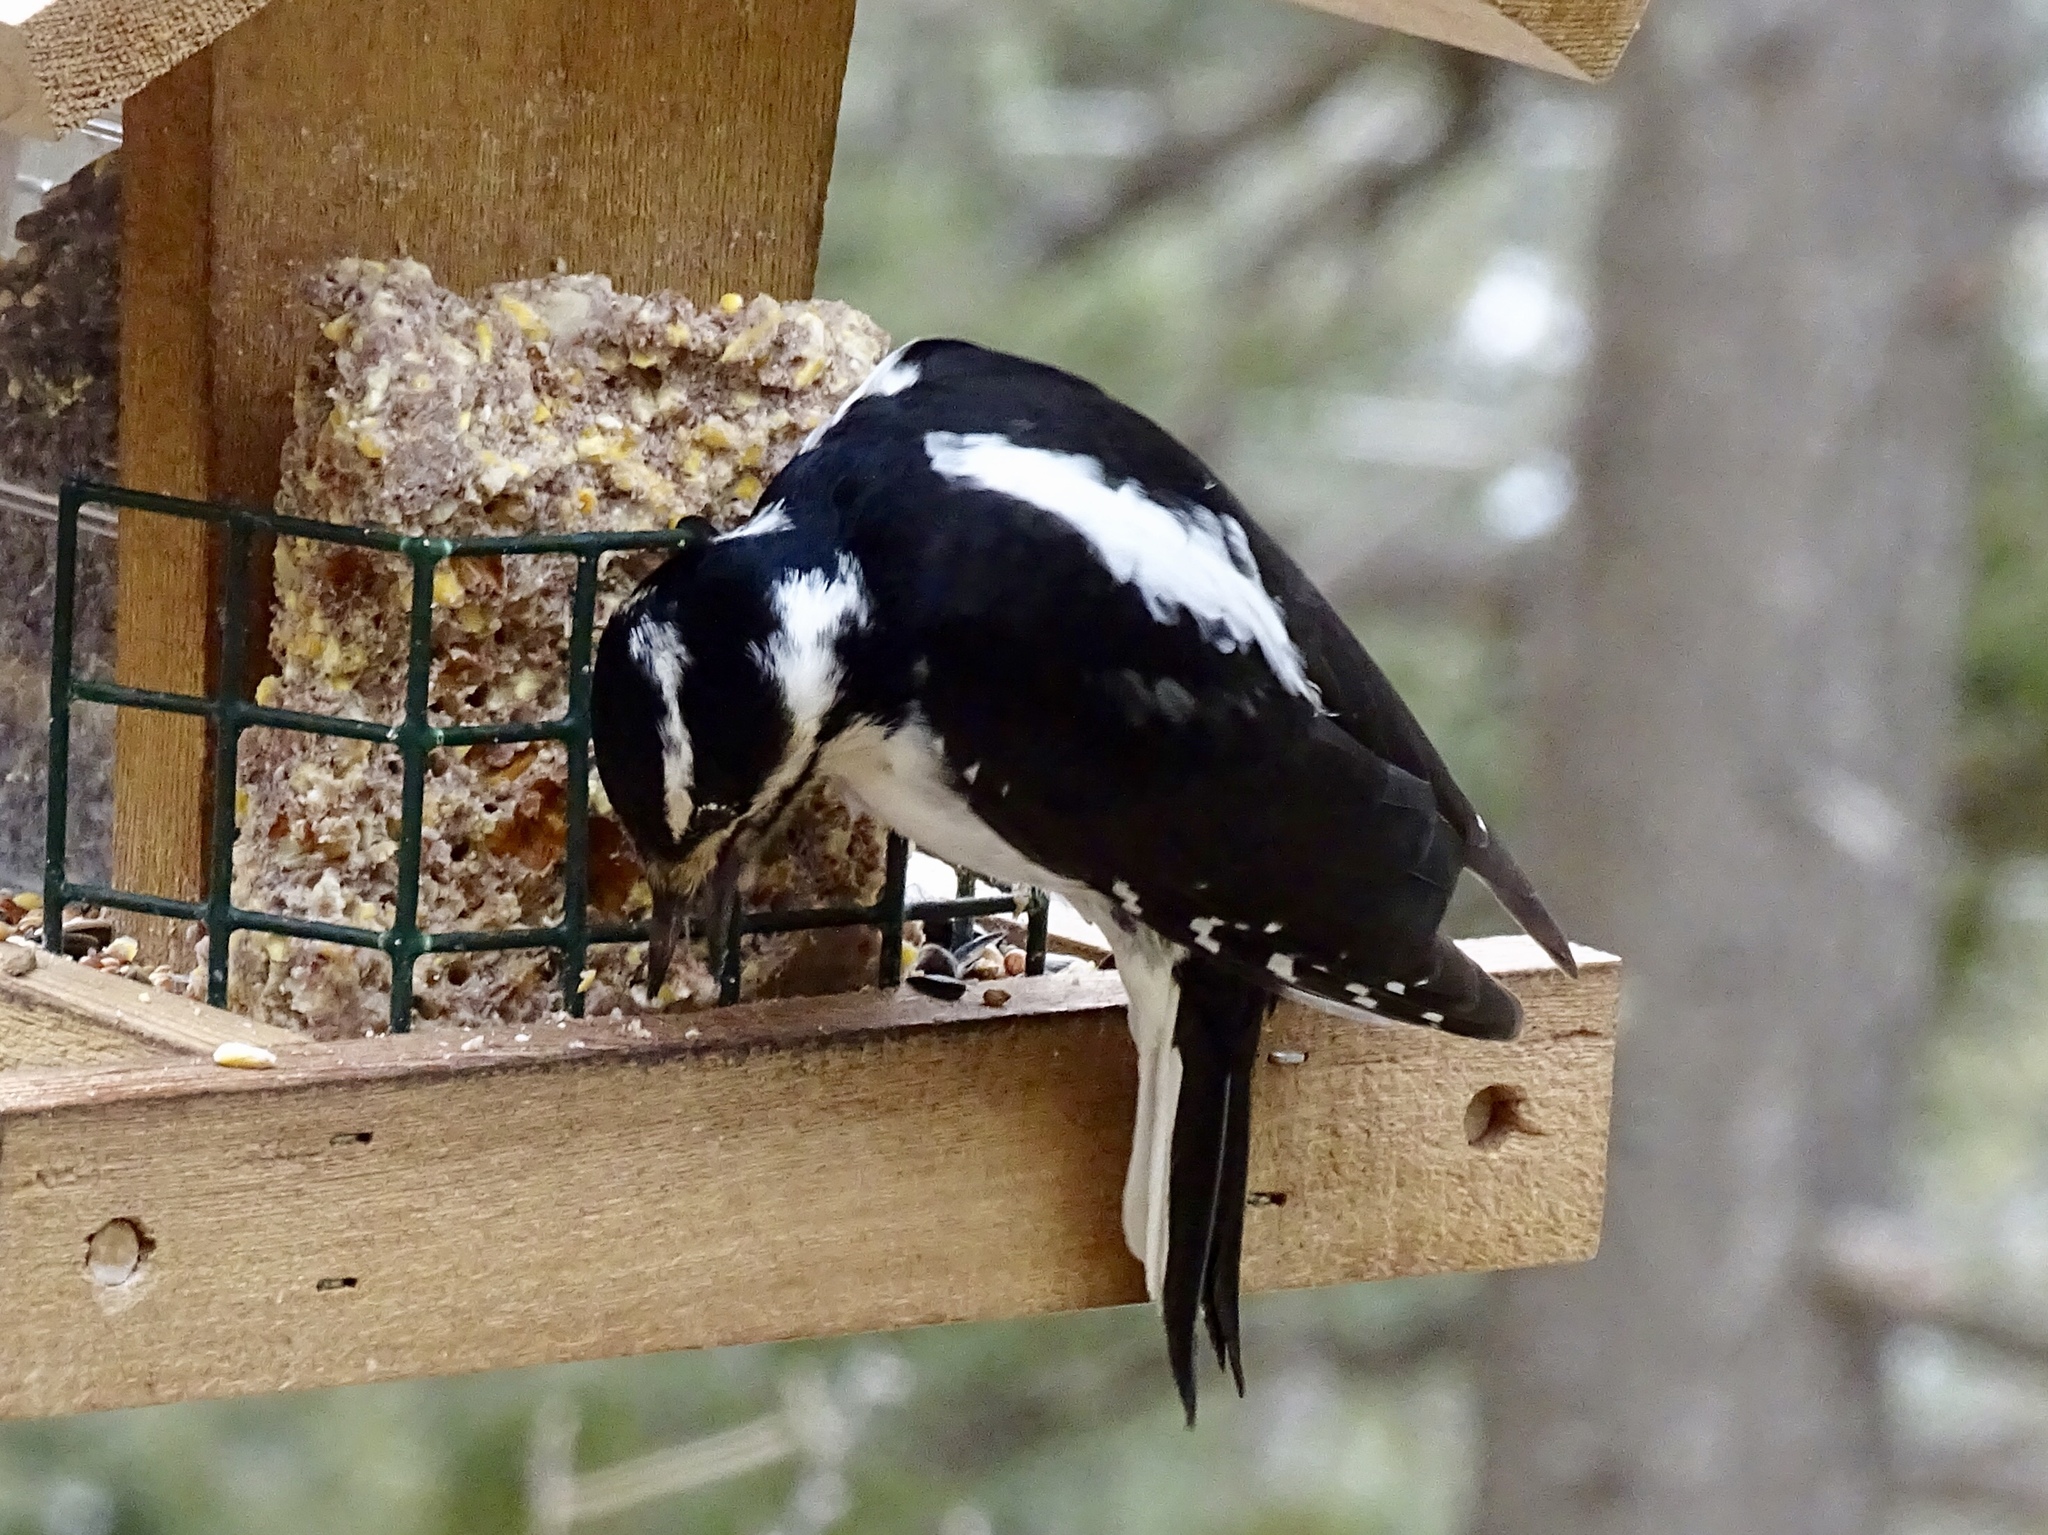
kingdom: Animalia
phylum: Chordata
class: Aves
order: Piciformes
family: Picidae
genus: Leuconotopicus
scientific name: Leuconotopicus villosus
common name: Hairy woodpecker
